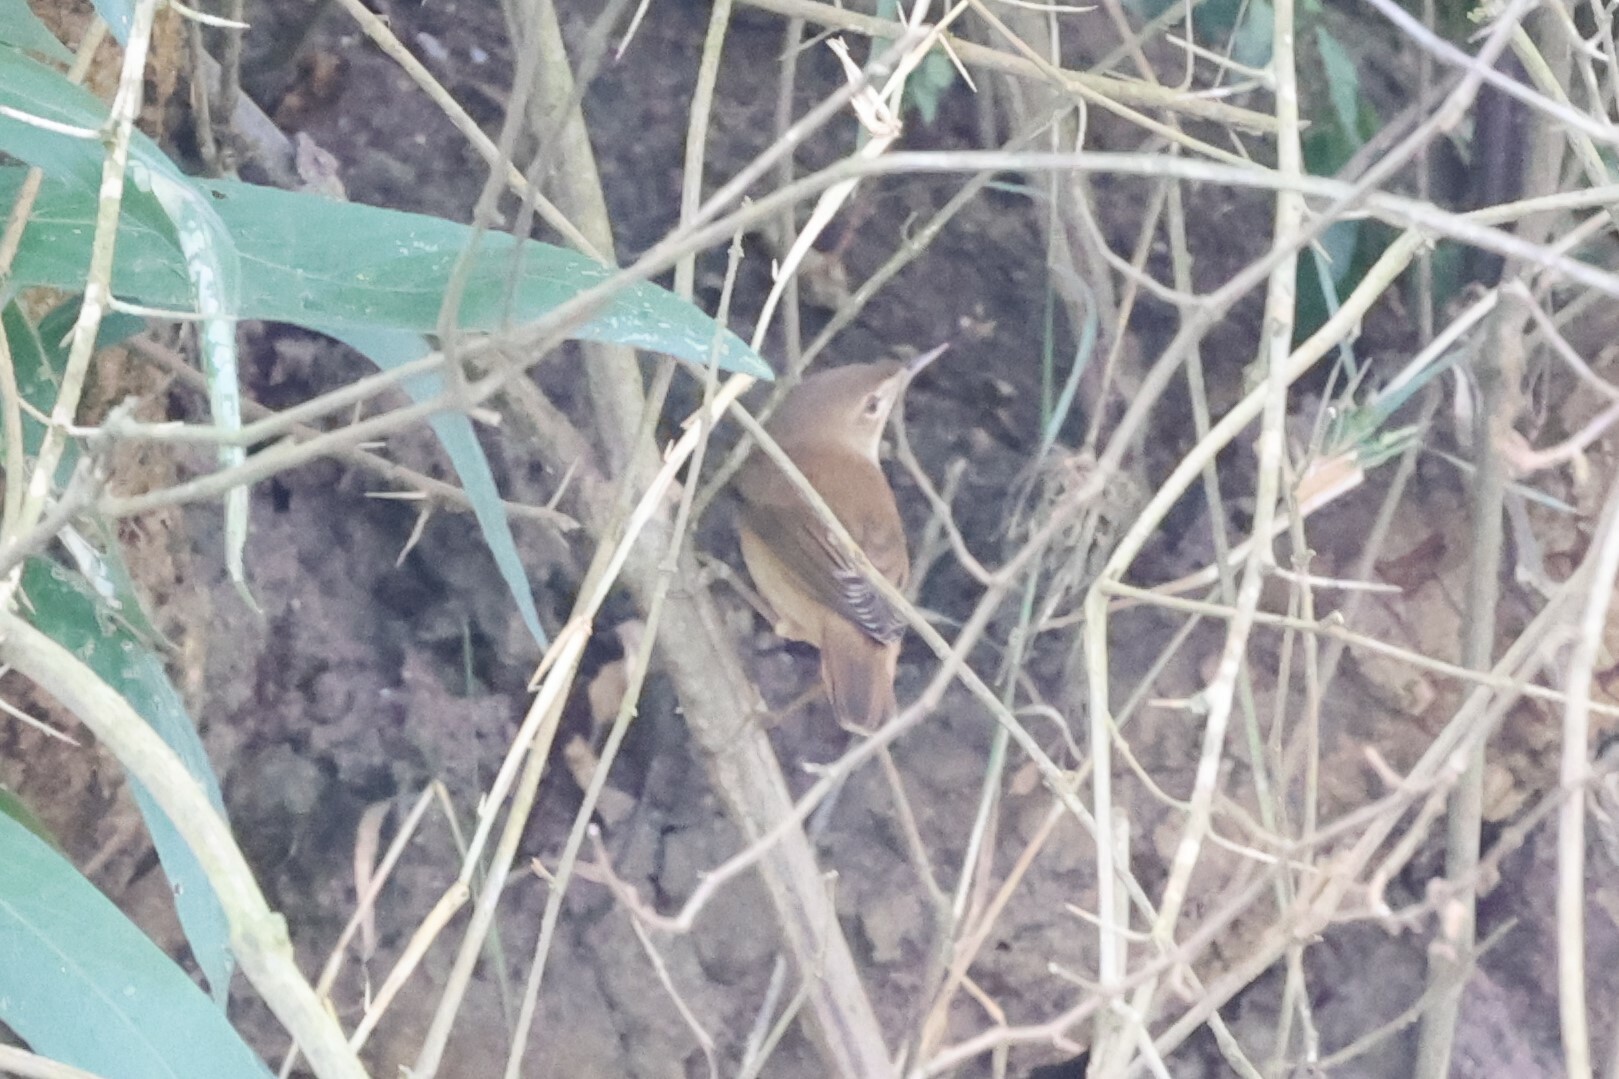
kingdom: Animalia
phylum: Chordata
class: Aves
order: Passeriformes
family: Acrocephalidae
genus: Acrocephalus
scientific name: Acrocephalus scirpaceus
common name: Eurasian reed warbler
